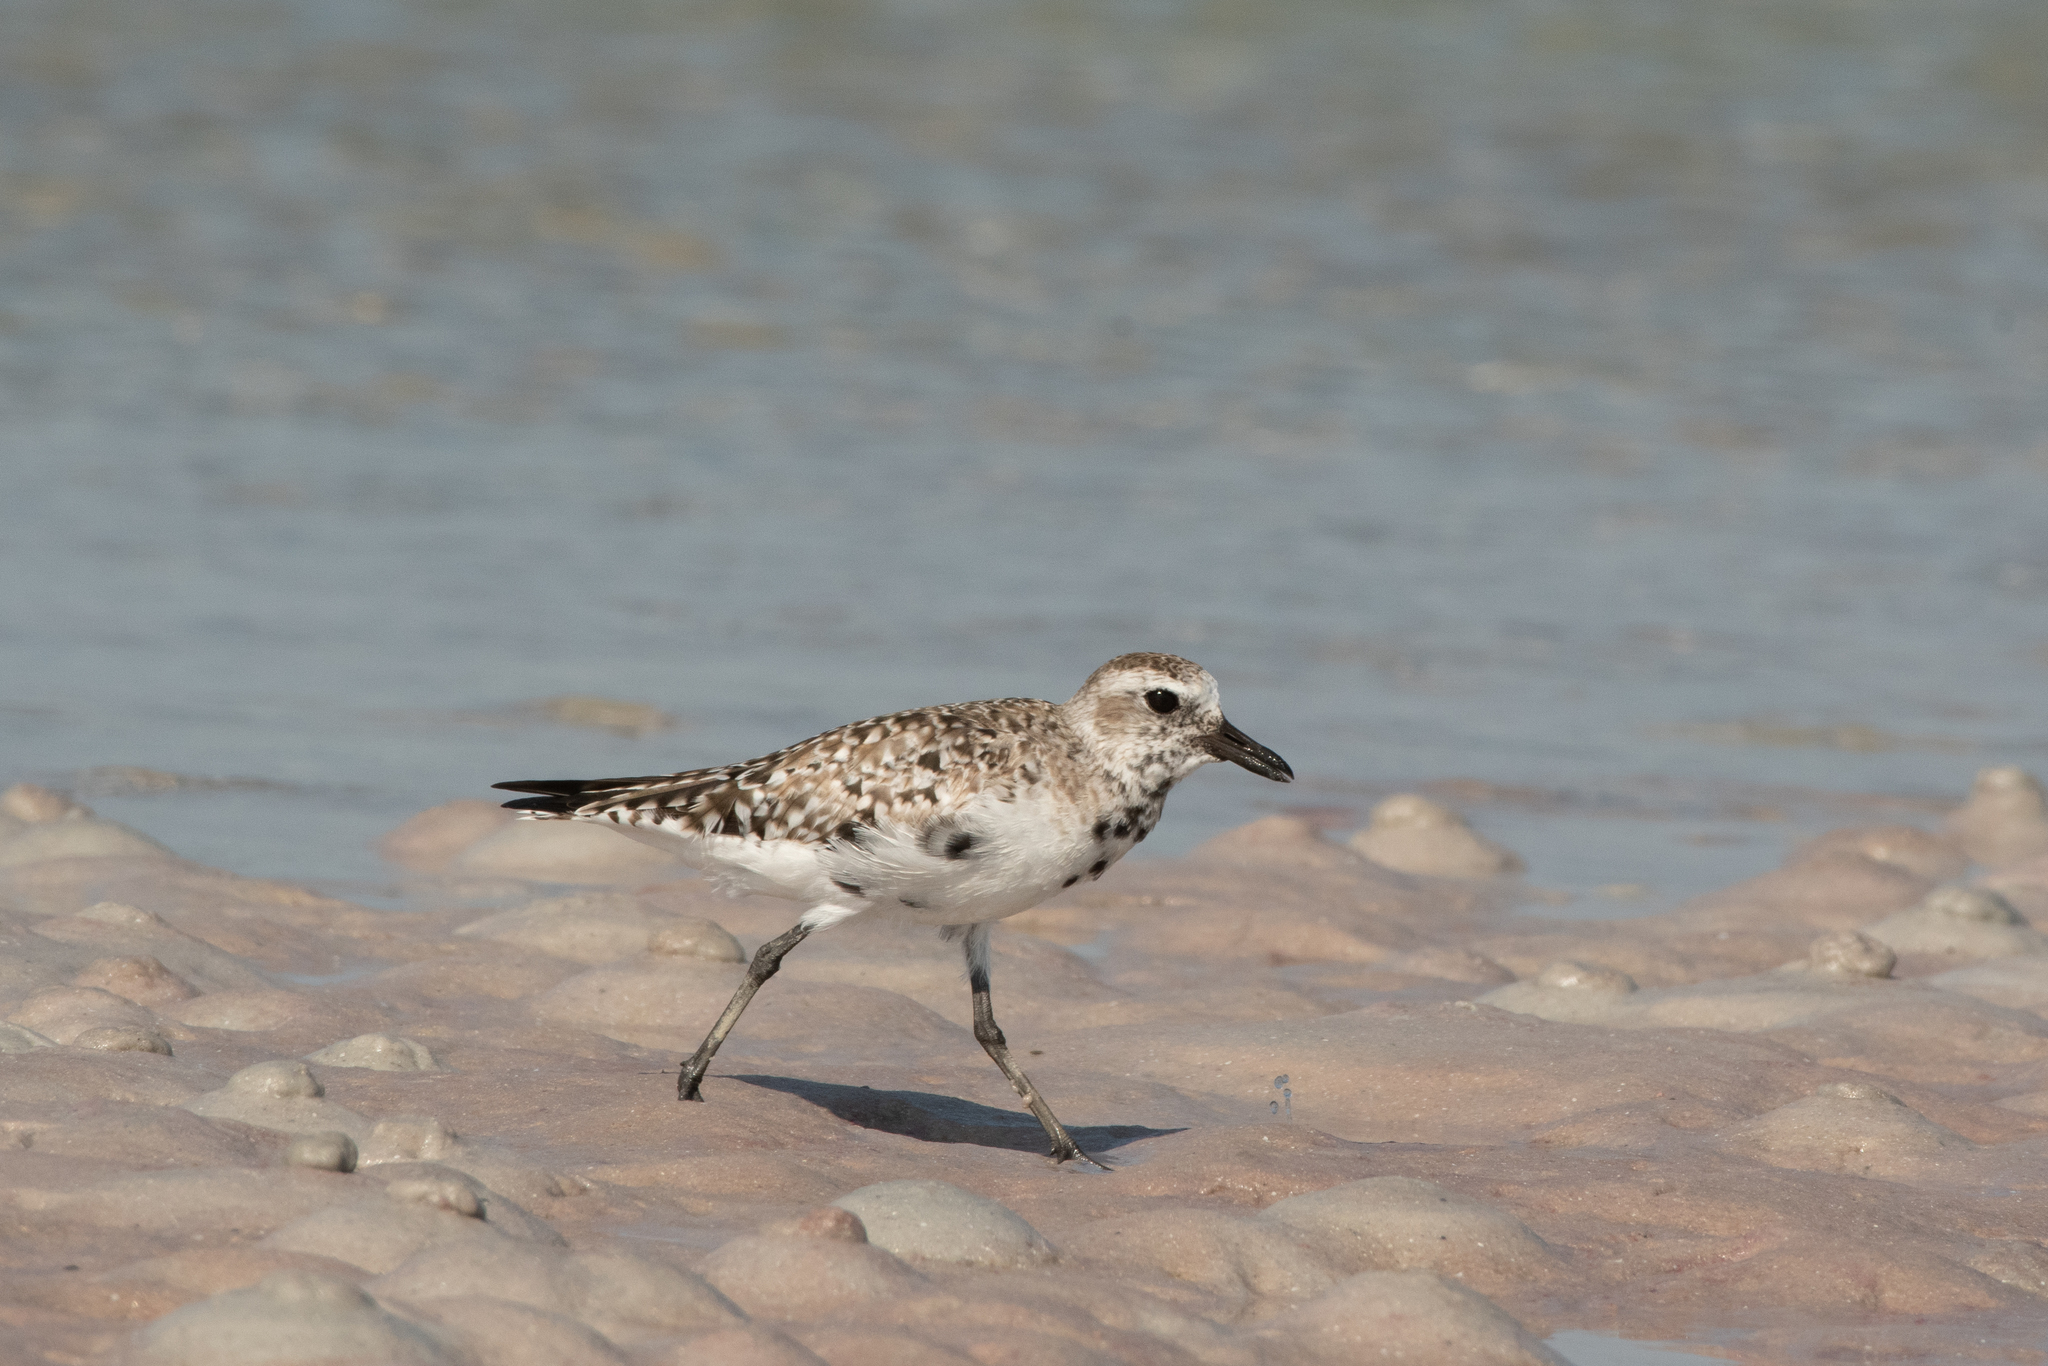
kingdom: Animalia
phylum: Chordata
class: Aves
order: Charadriiformes
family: Charadriidae
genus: Pluvialis
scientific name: Pluvialis squatarola
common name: Grey plover
